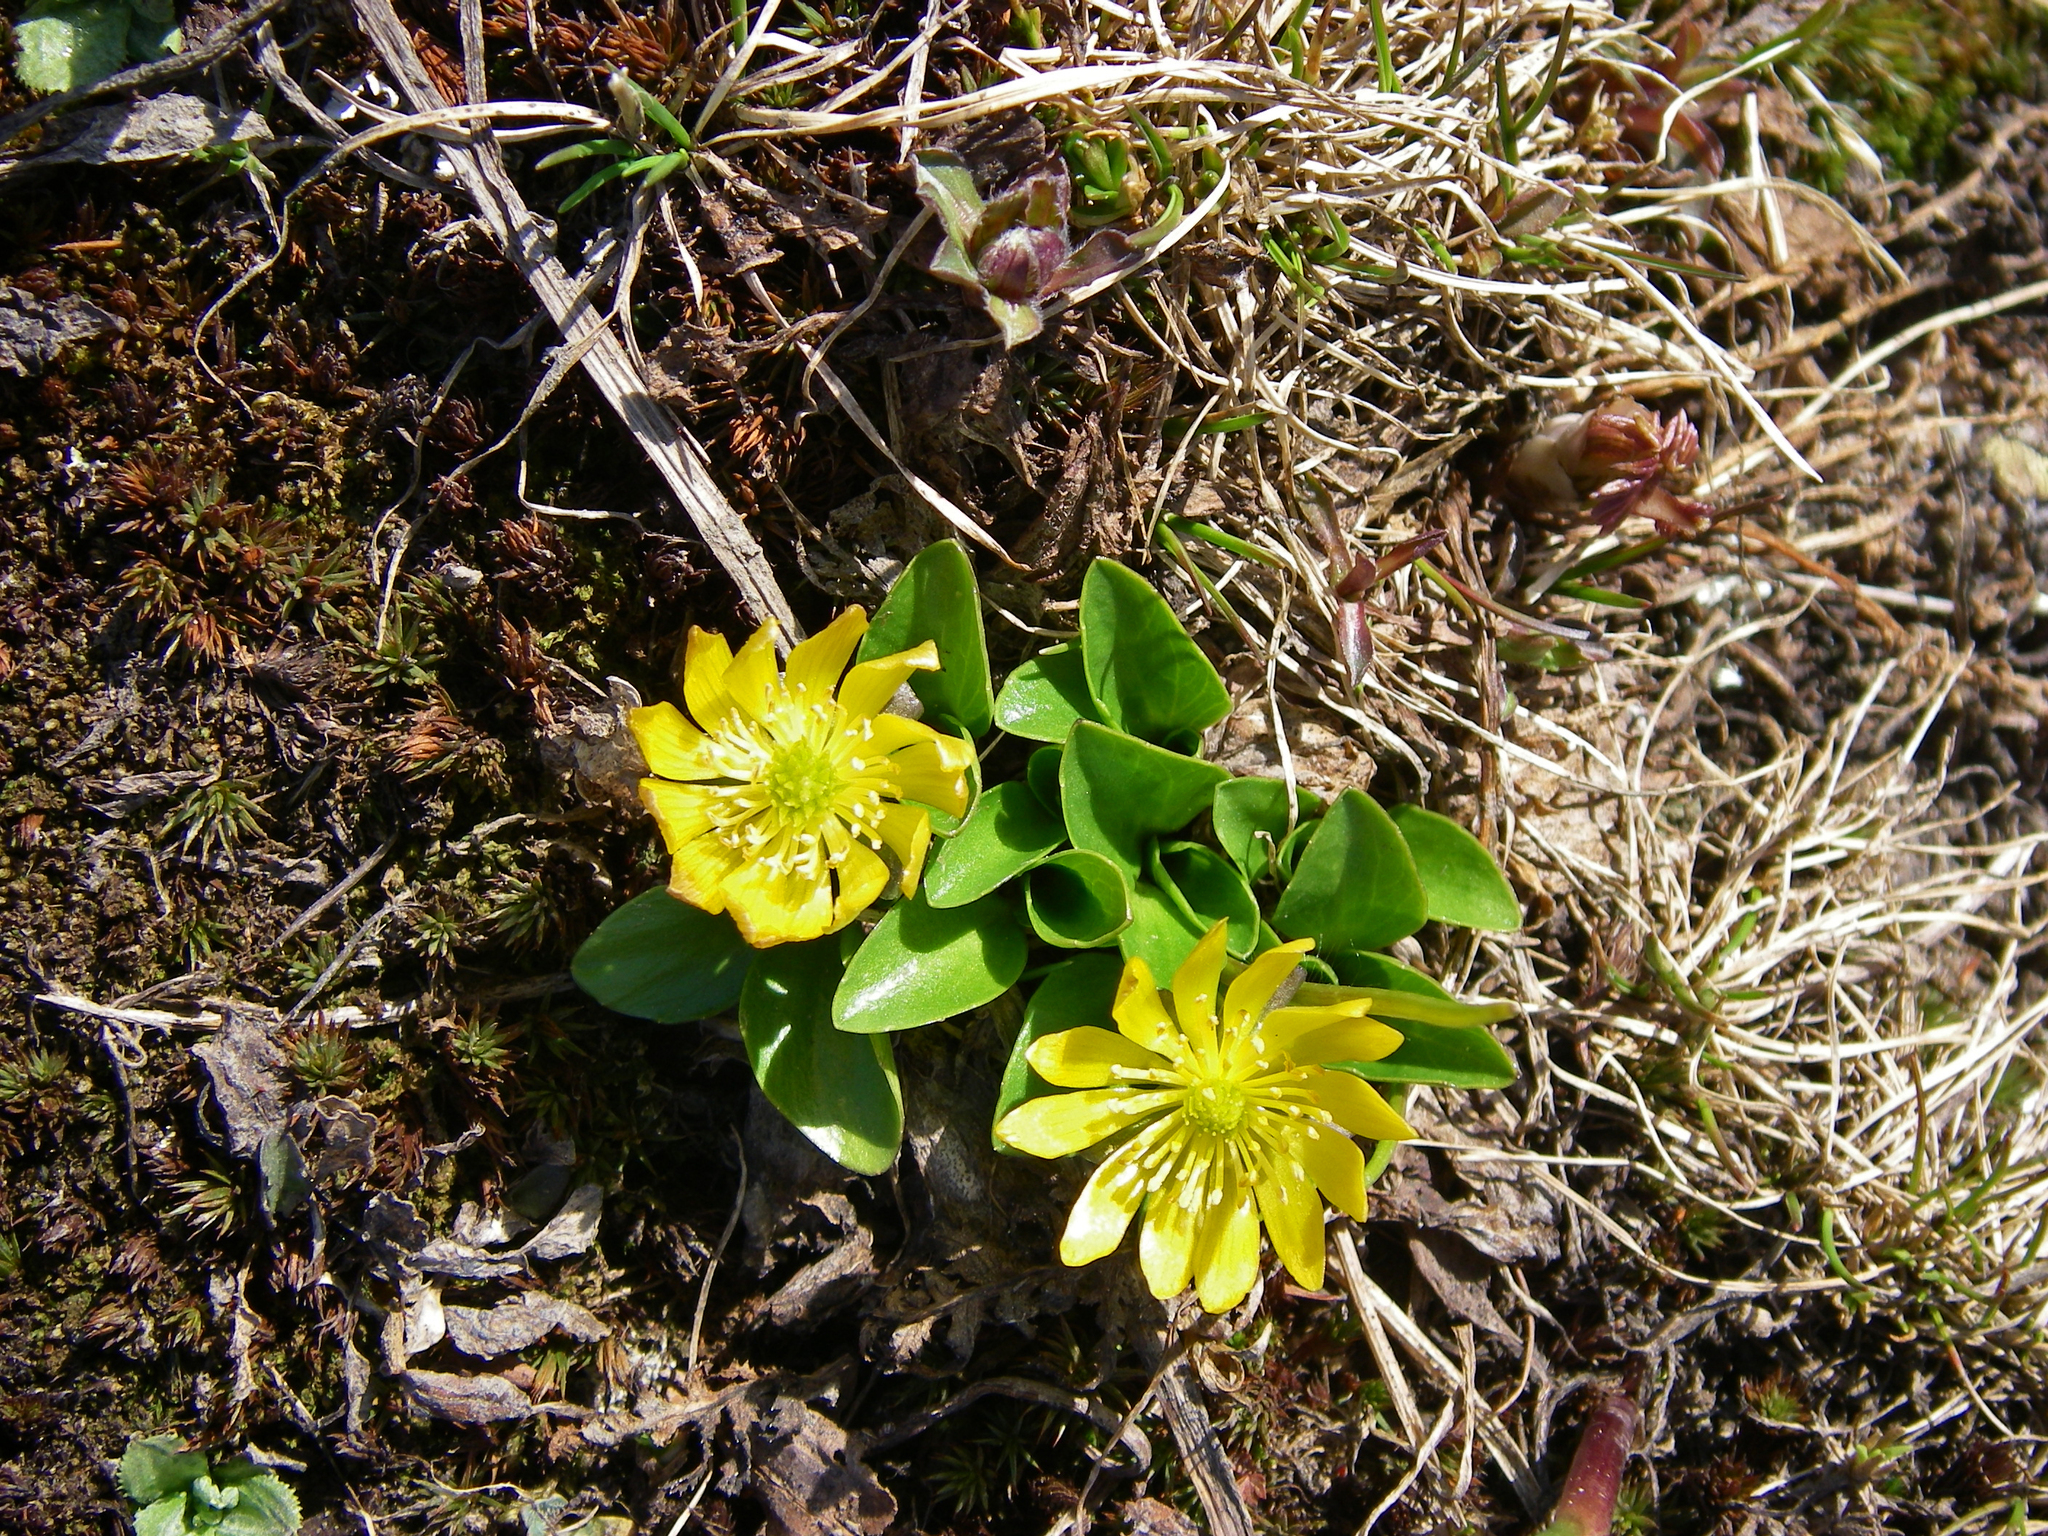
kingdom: Plantae
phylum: Tracheophyta
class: Magnoliopsida
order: Ranunculales
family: Ranunculaceae
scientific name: Ranunculaceae
